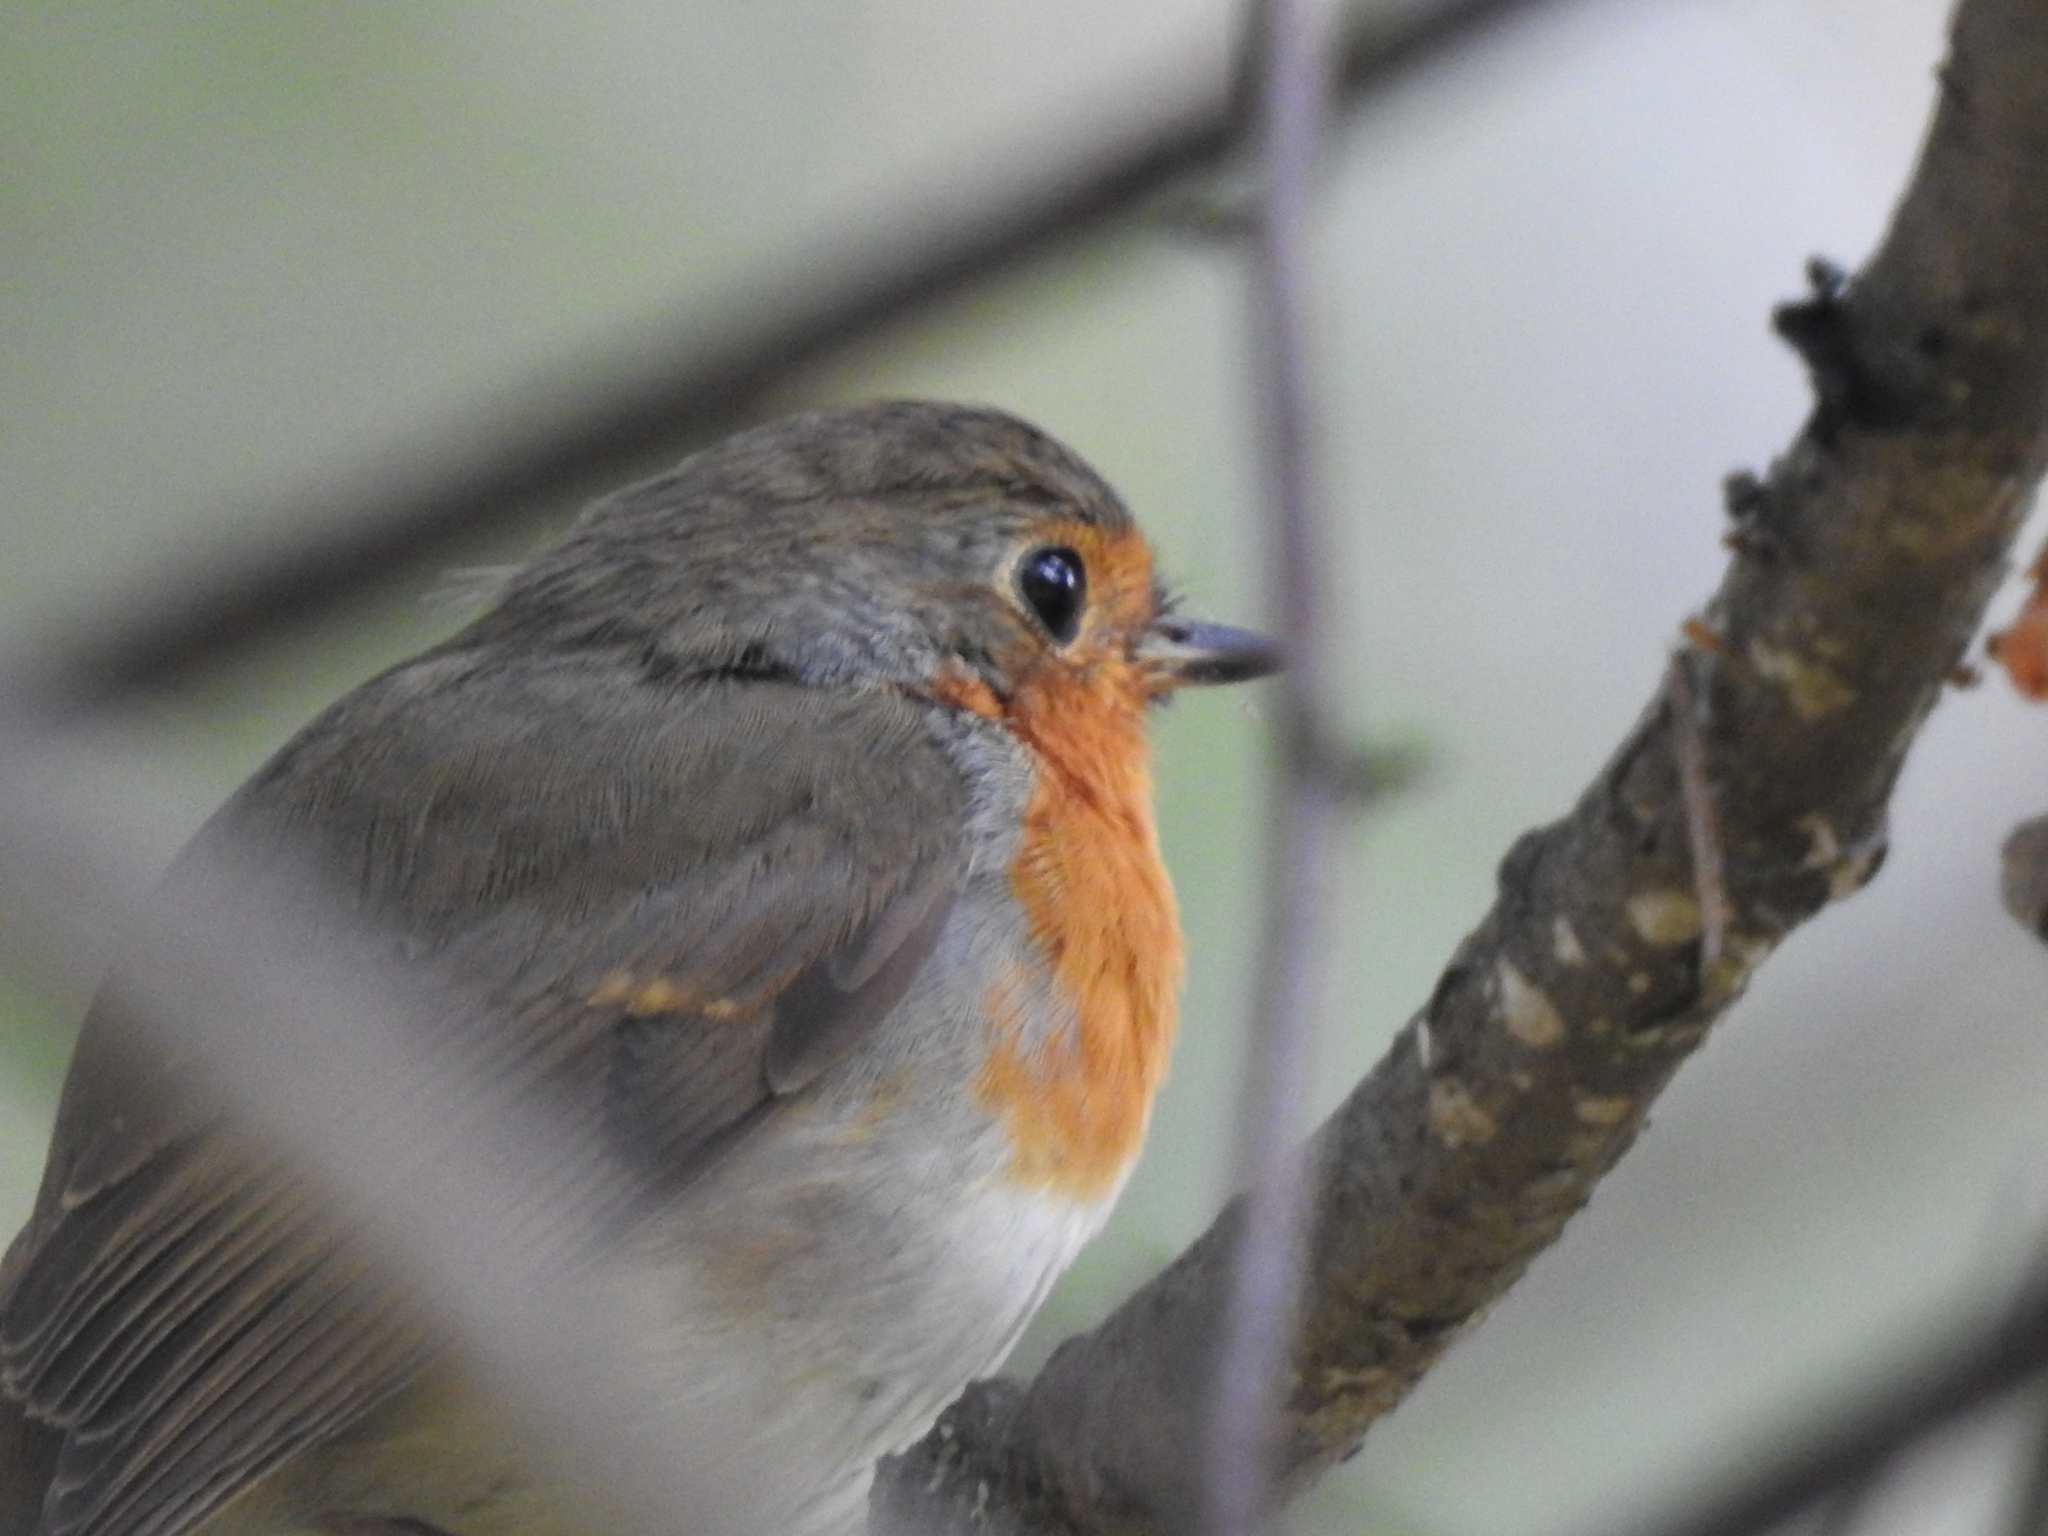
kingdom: Animalia
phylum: Chordata
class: Aves
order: Passeriformes
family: Muscicapidae
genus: Erithacus
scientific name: Erithacus rubecula
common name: European robin
